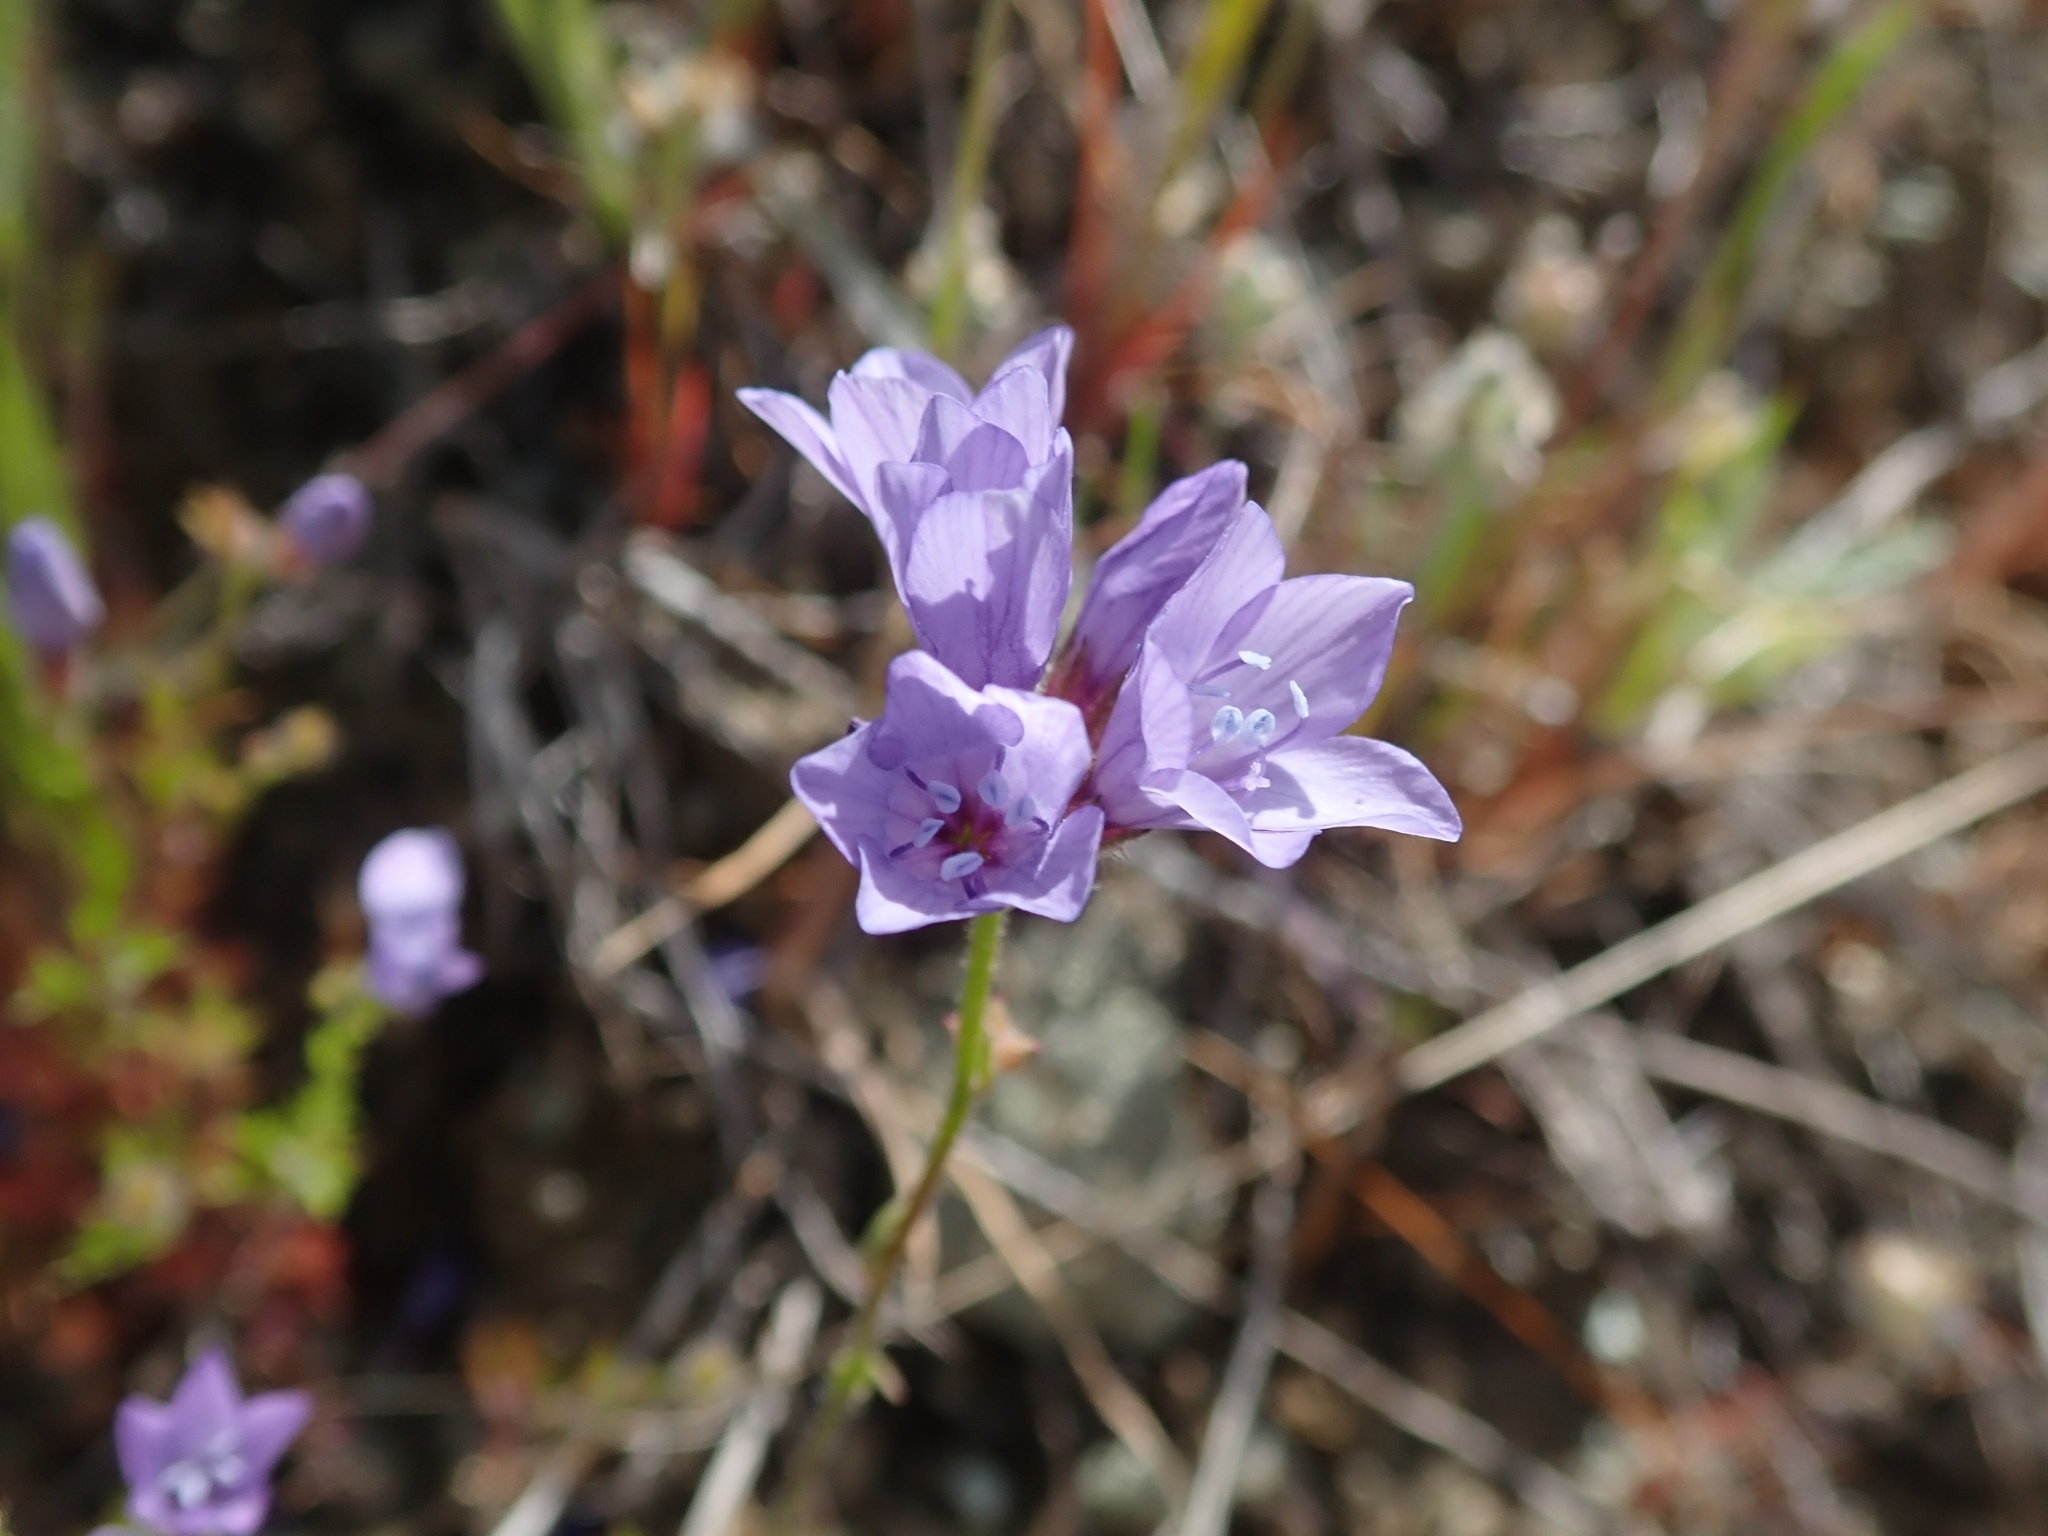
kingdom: Plantae
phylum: Tracheophyta
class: Magnoliopsida
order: Ericales
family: Polemoniaceae
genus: Gilia
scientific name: Gilia achilleifolia
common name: California gily-flower
